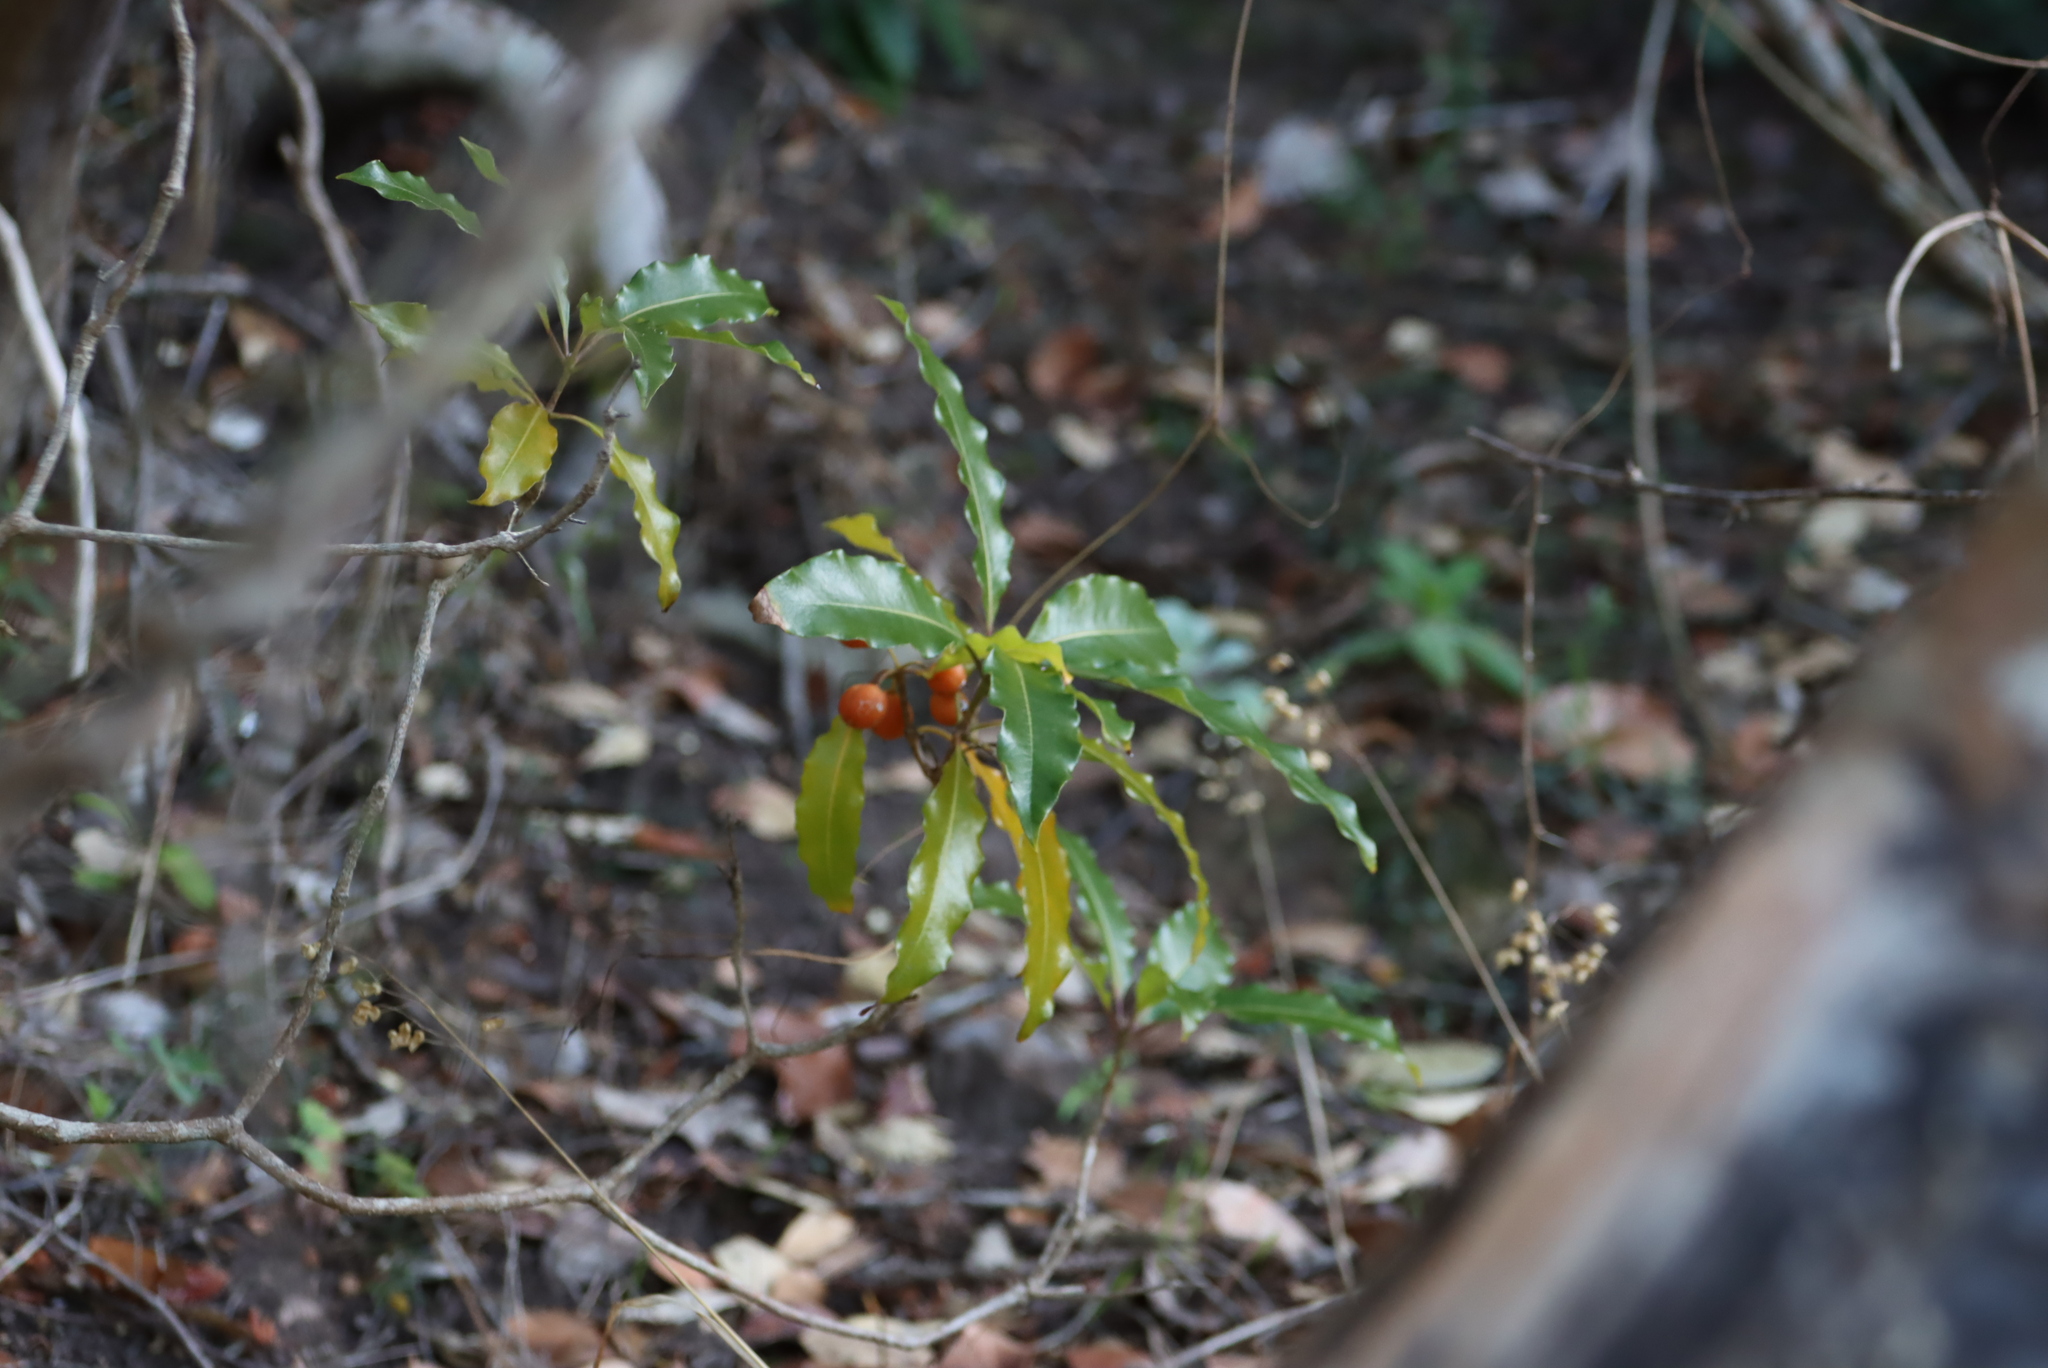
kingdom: Plantae
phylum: Tracheophyta
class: Magnoliopsida
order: Apiales
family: Pittosporaceae
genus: Pittosporum
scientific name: Pittosporum undulatum
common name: Australian cheesewood
